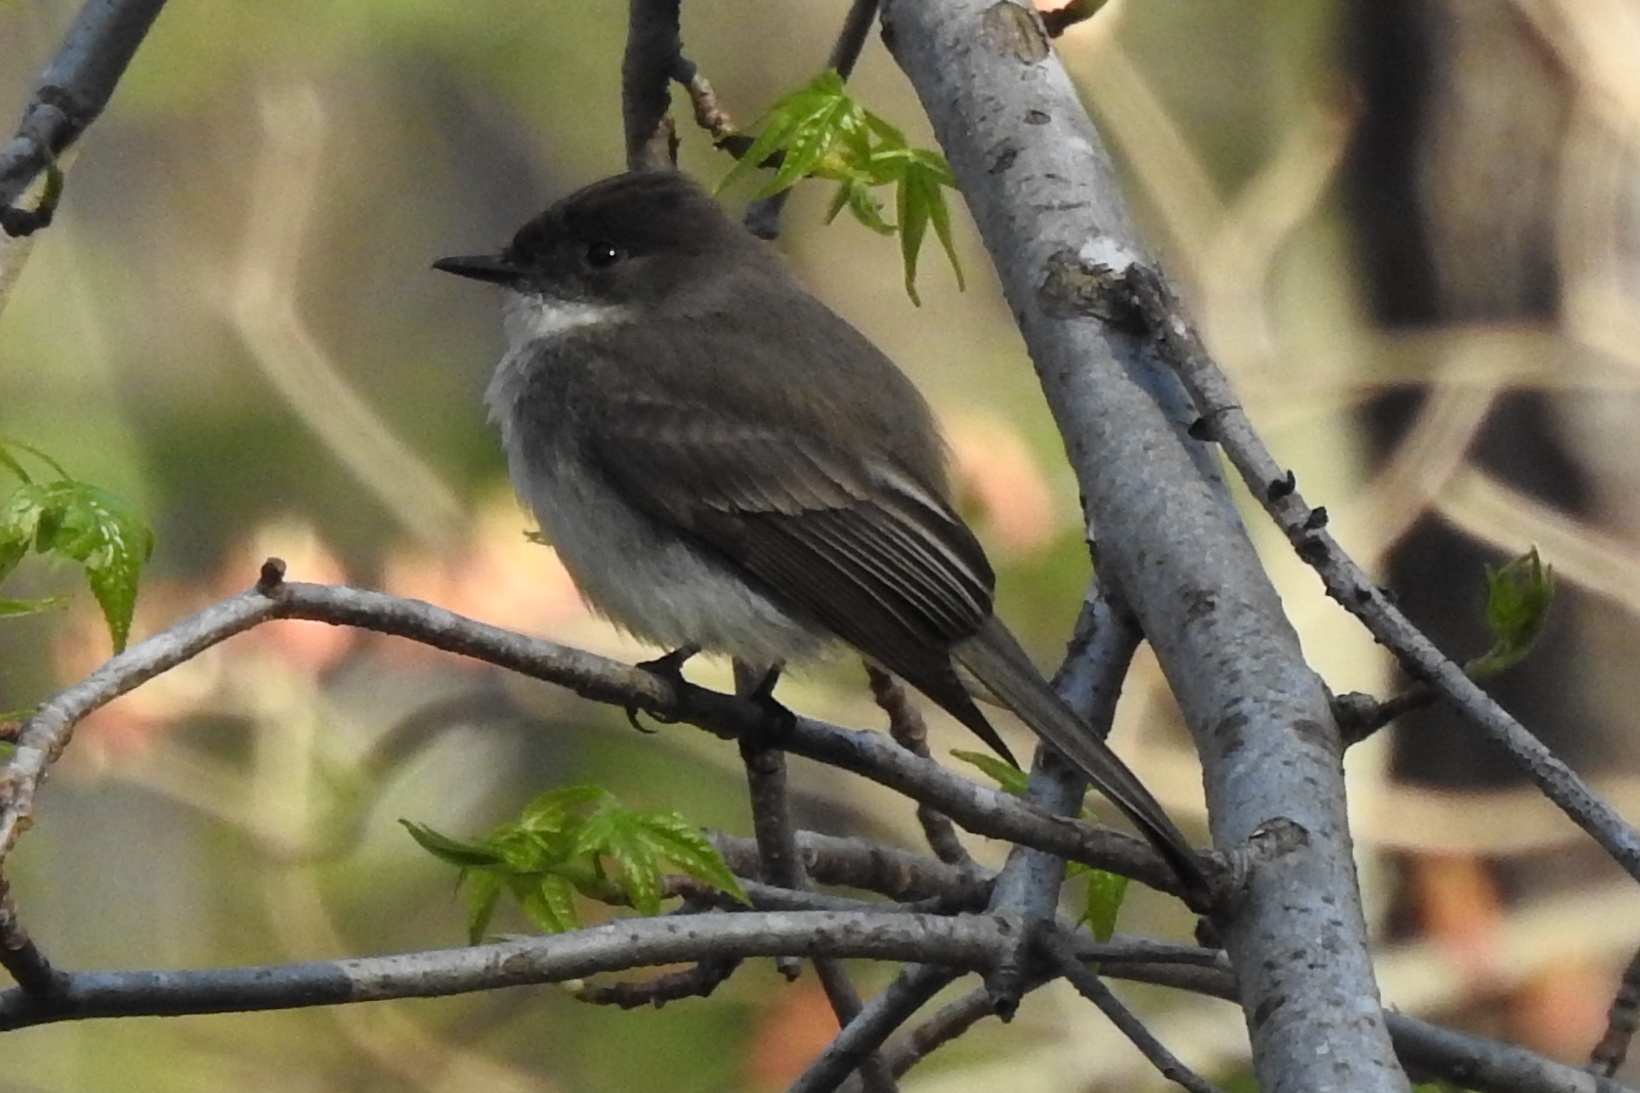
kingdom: Animalia
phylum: Chordata
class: Aves
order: Passeriformes
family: Tyrannidae
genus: Sayornis
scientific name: Sayornis phoebe
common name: Eastern phoebe
